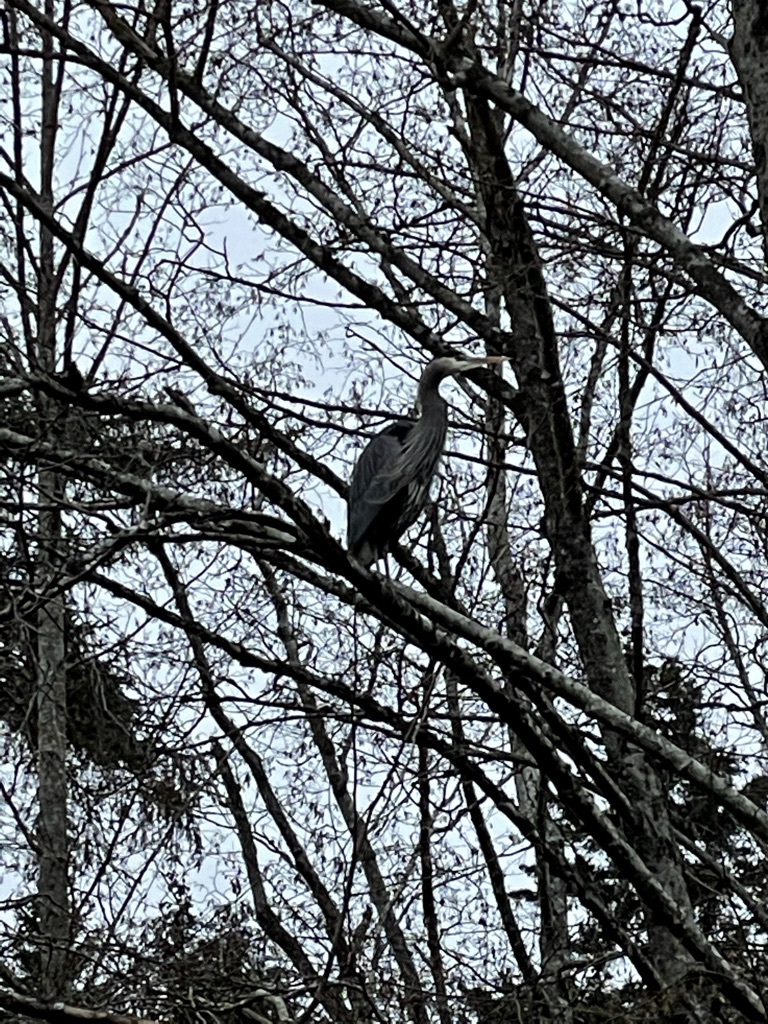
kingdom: Animalia
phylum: Chordata
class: Aves
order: Pelecaniformes
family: Ardeidae
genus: Ardea
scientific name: Ardea herodias
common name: Great blue heron
